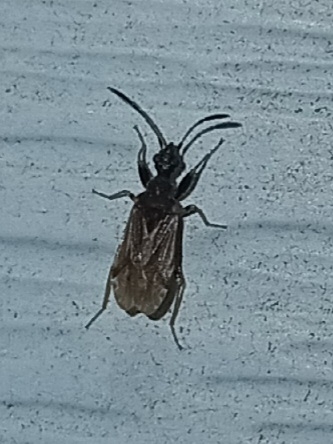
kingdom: Animalia
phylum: Arthropoda
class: Insecta
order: Hemiptera
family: Rhyparochromidae
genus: Heraeus
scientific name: Heraeus plebejus
